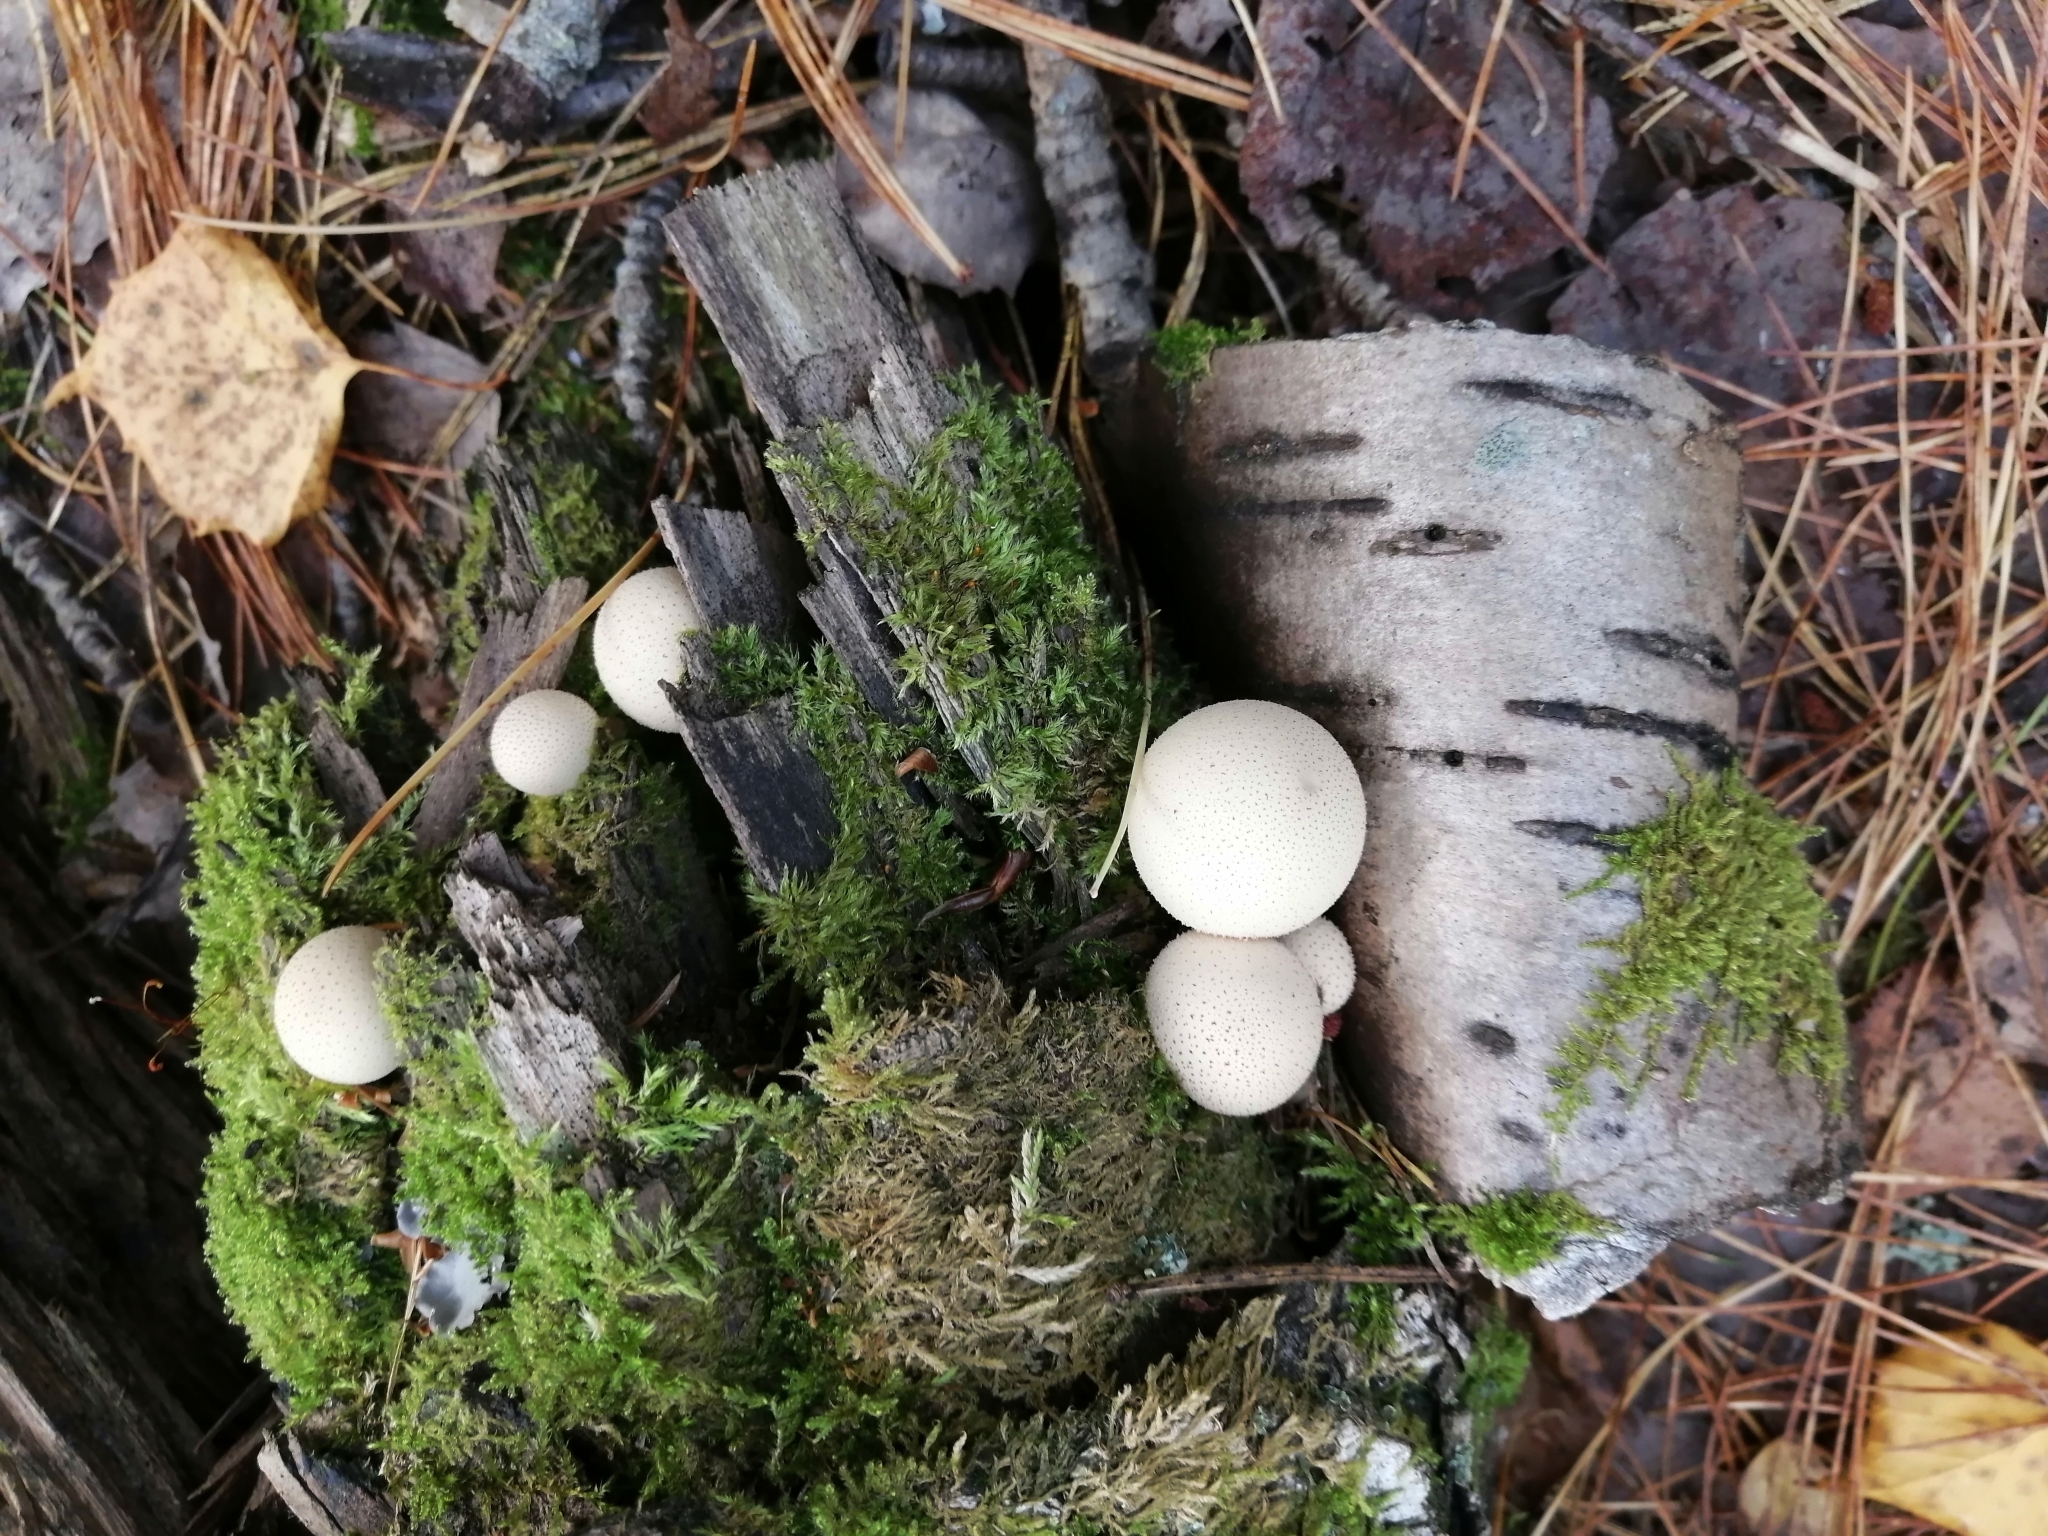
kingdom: Fungi
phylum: Basidiomycota
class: Agaricomycetes
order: Agaricales
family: Lycoperdaceae
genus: Apioperdon
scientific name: Apioperdon pyriforme
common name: Pear-shaped puffball
